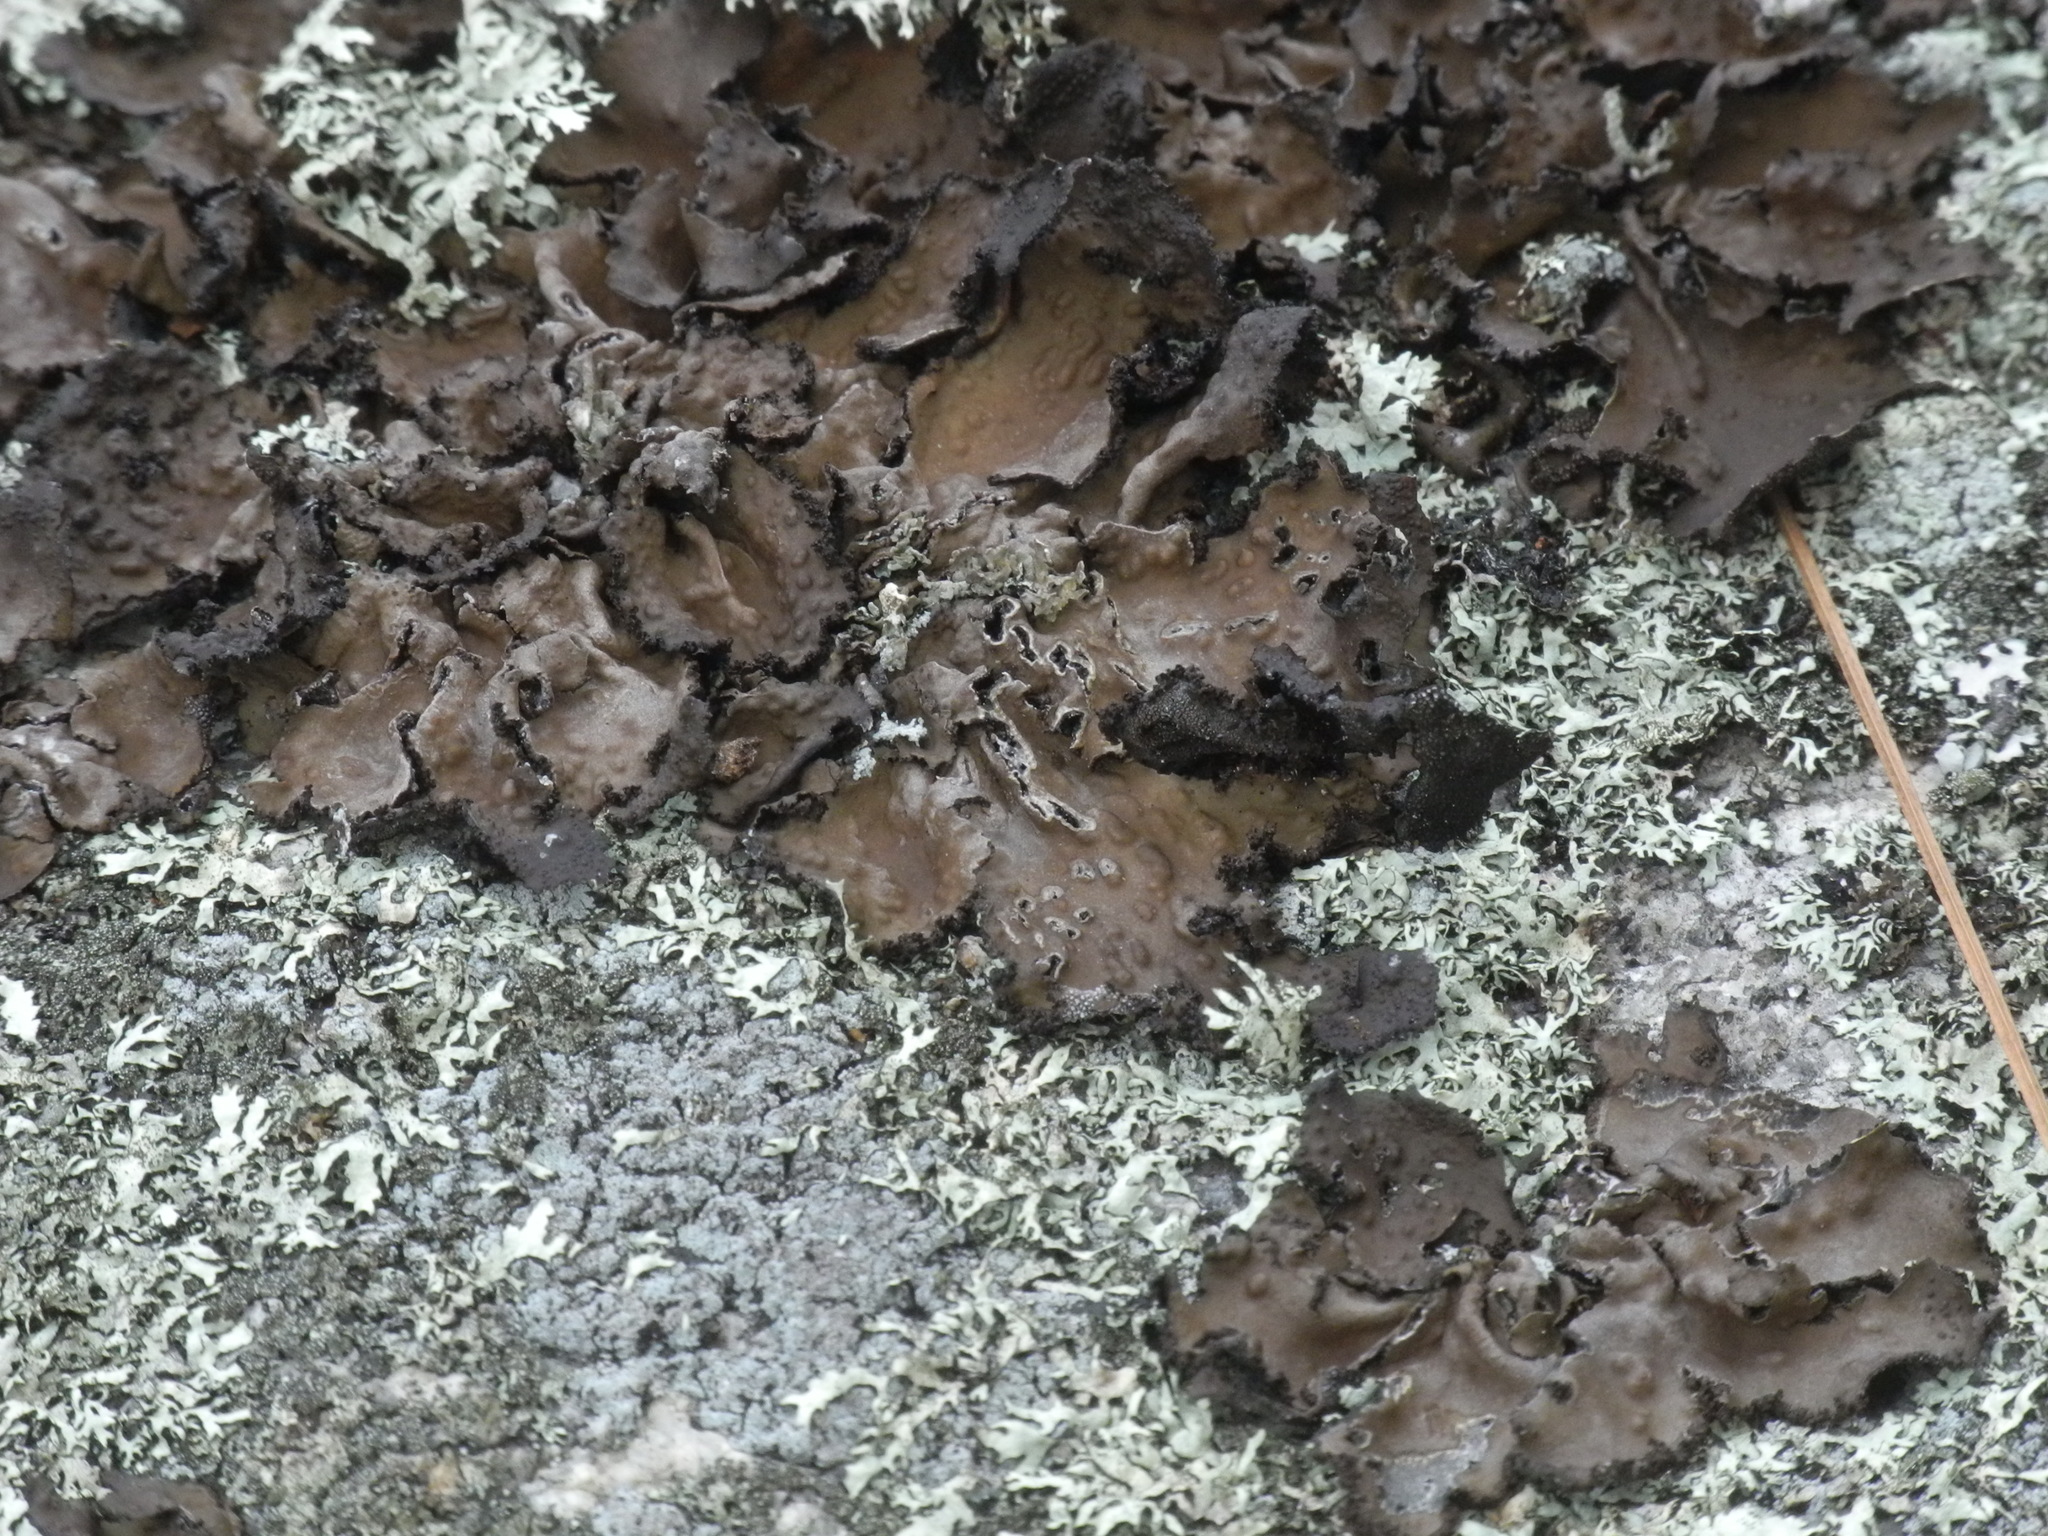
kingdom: Fungi
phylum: Ascomycota
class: Lecanoromycetes
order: Umbilicariales
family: Umbilicariaceae
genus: Lasallia
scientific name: Lasallia pensylvanica
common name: Blackened toadskin lichen
